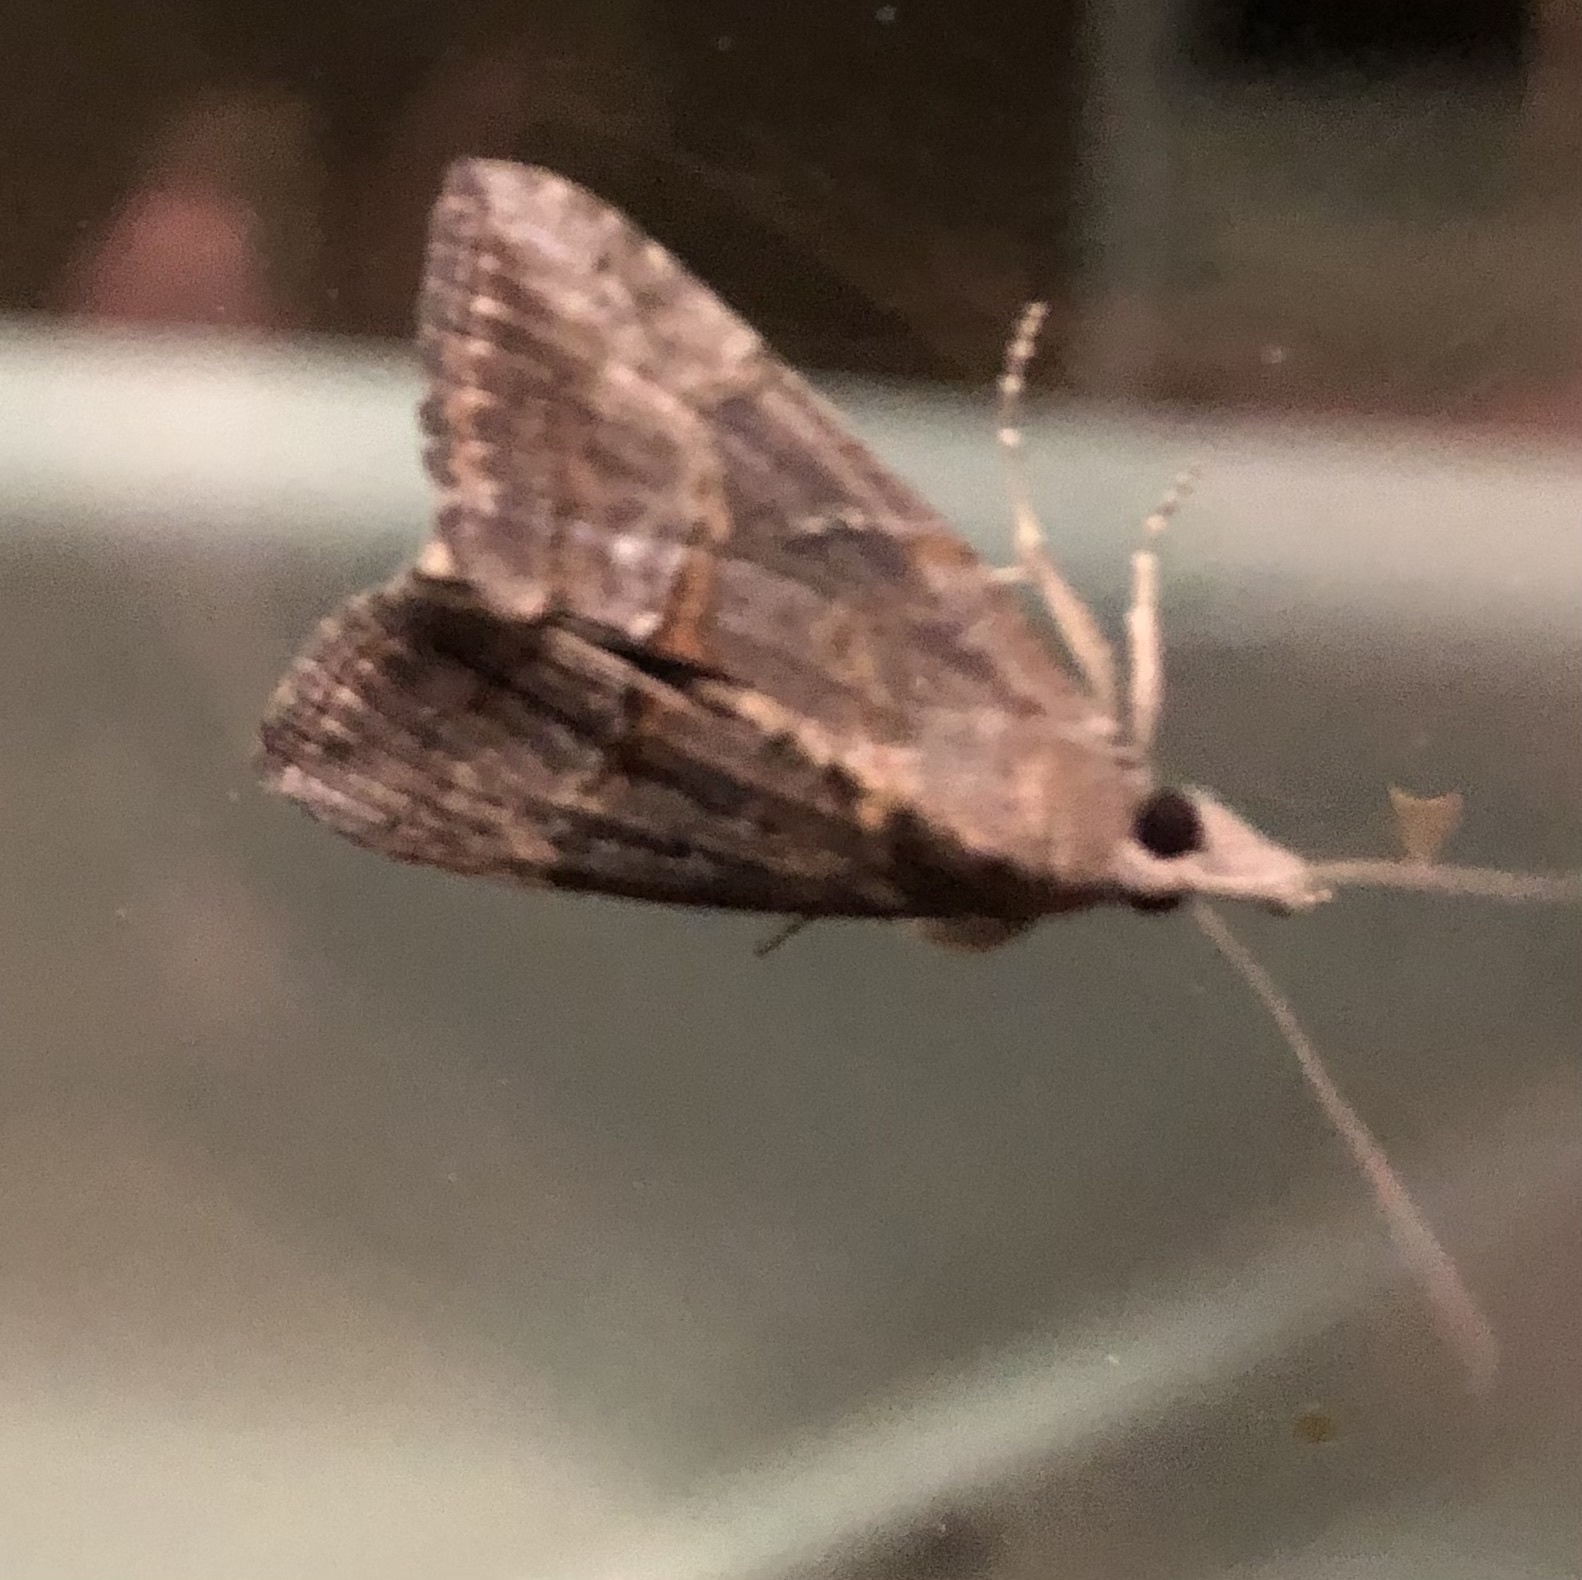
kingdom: Animalia
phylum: Arthropoda
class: Insecta
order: Lepidoptera
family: Erebidae
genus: Hypena
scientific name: Hypena scabra
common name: Green cloverworm
